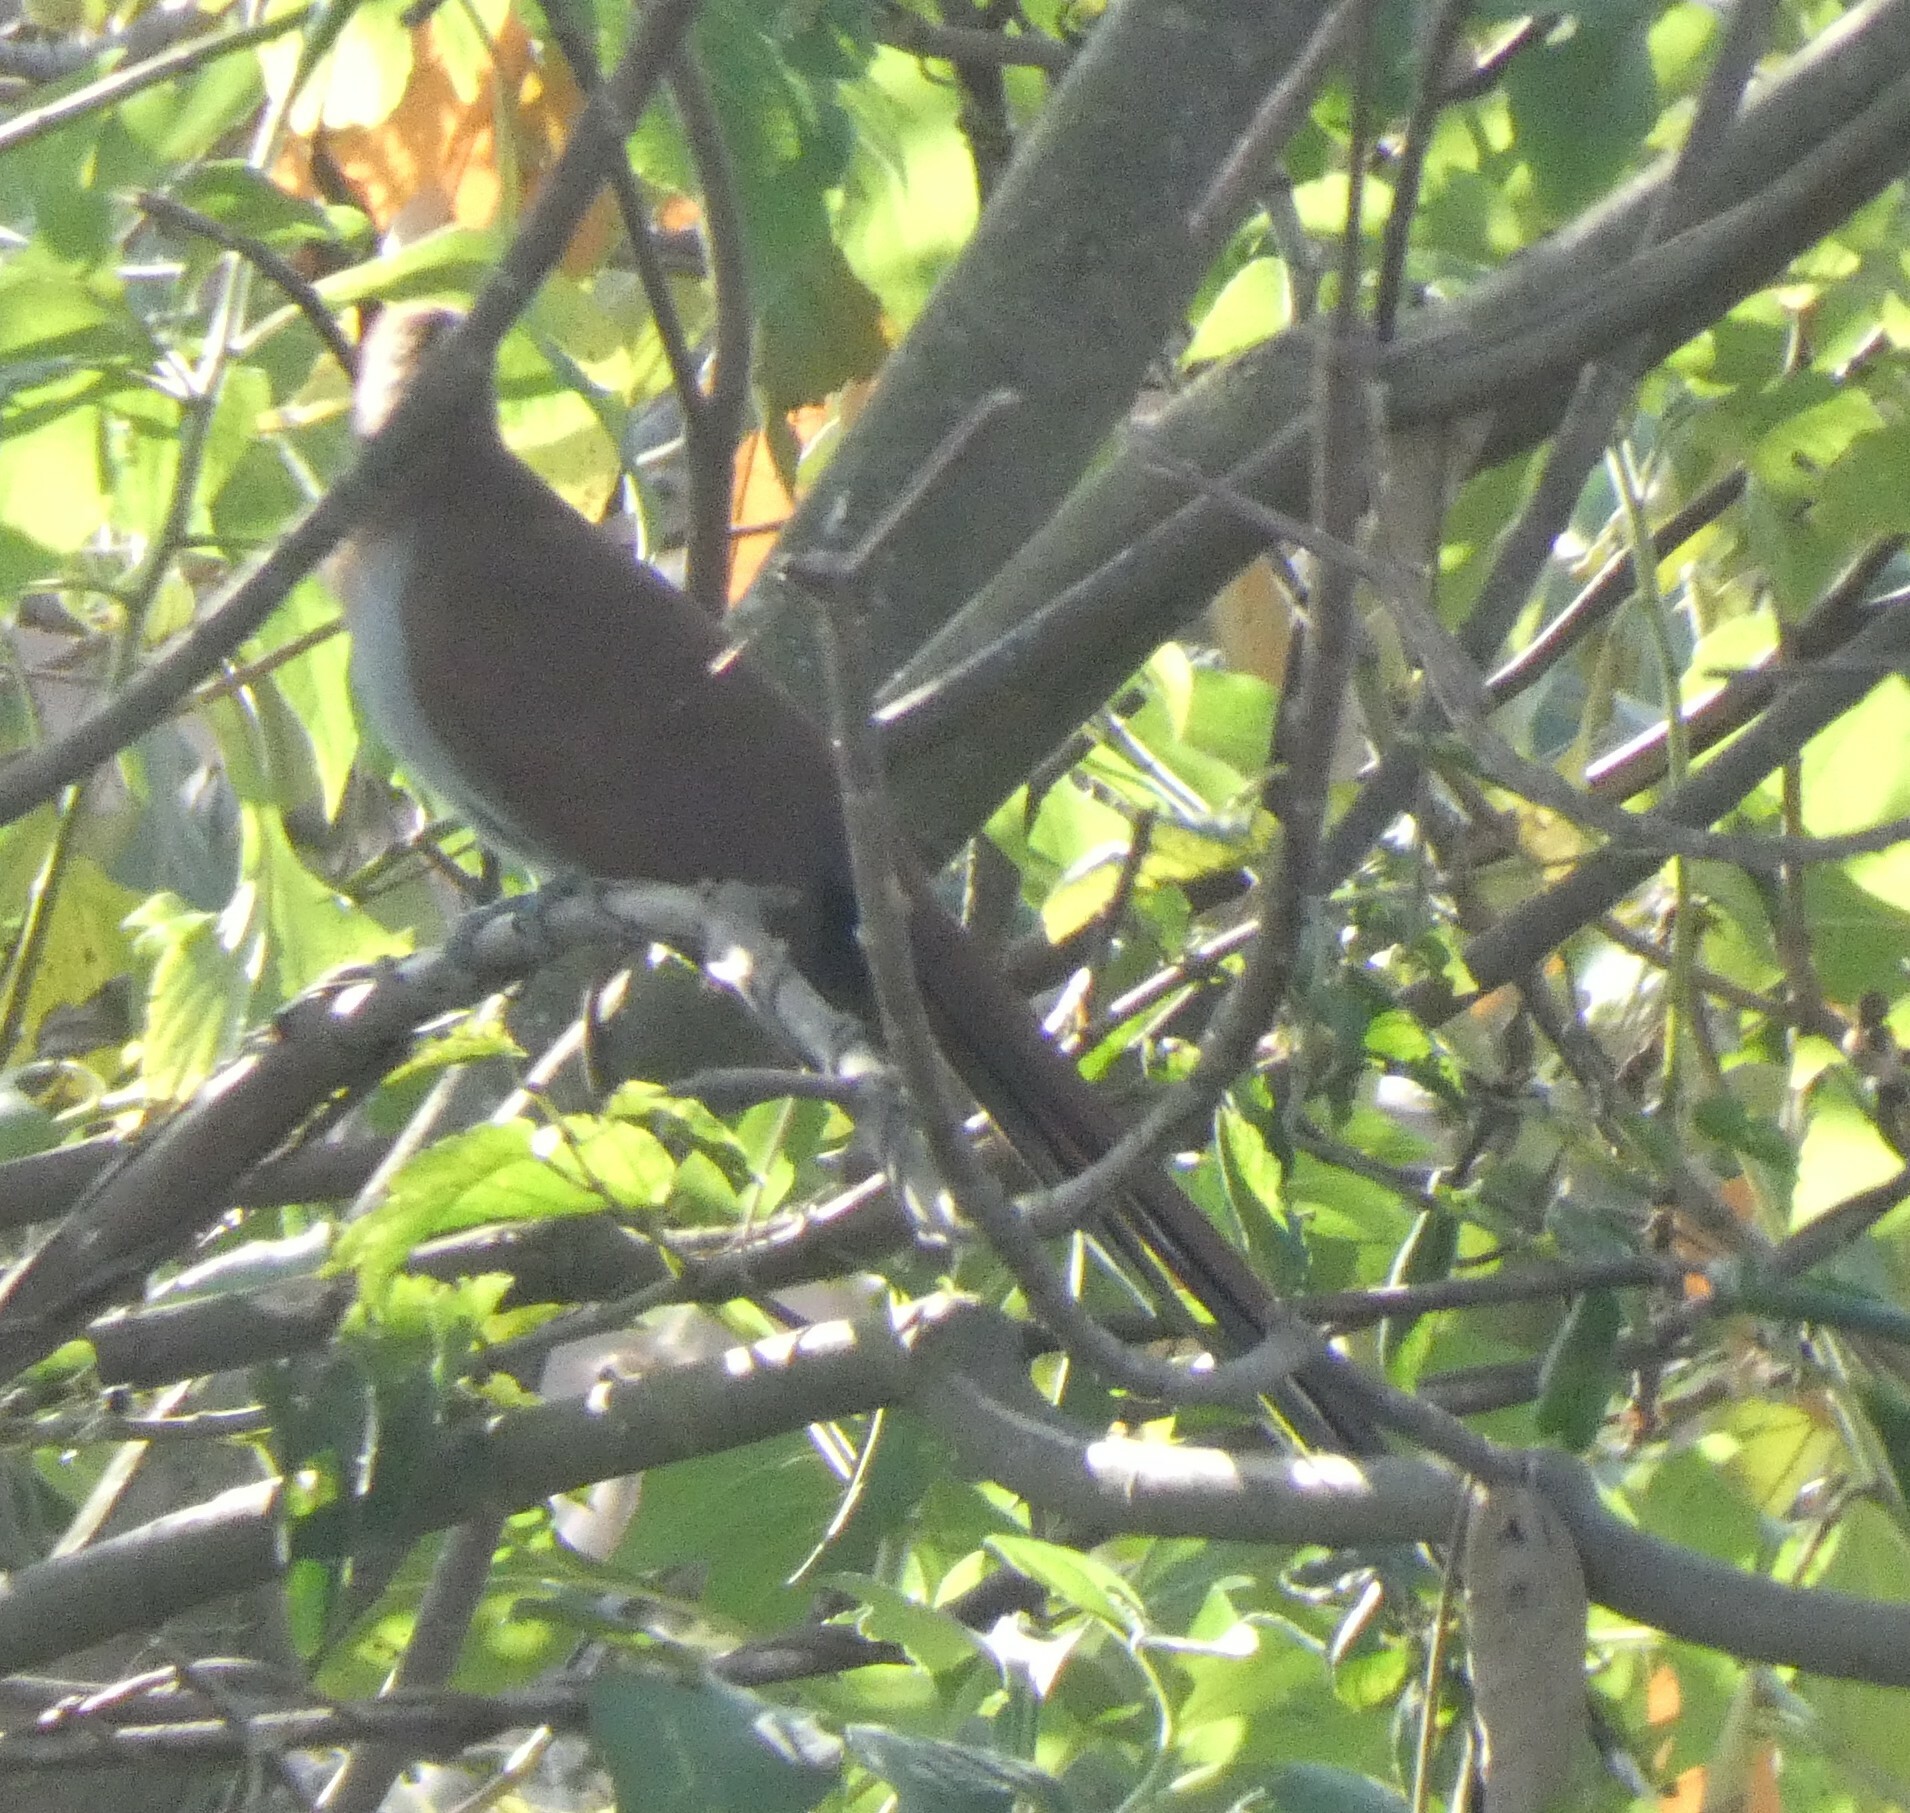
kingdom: Animalia
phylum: Chordata
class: Aves
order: Cuculiformes
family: Cuculidae
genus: Piaya
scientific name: Piaya cayana
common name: Squirrel cuckoo
